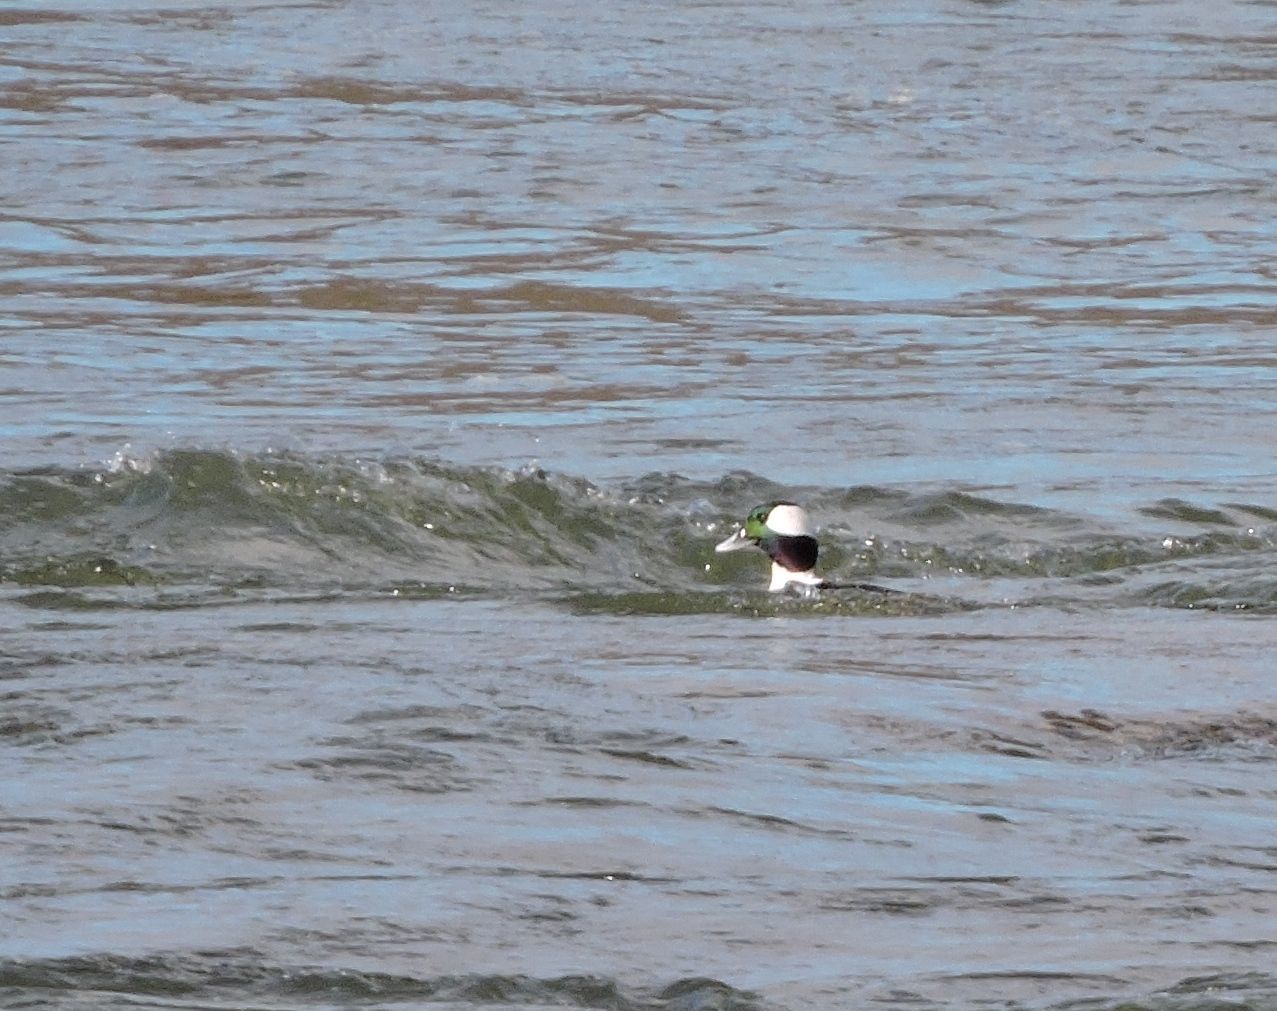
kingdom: Animalia
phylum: Chordata
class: Aves
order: Anseriformes
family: Anatidae
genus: Bucephala
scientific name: Bucephala albeola
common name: Bufflehead
